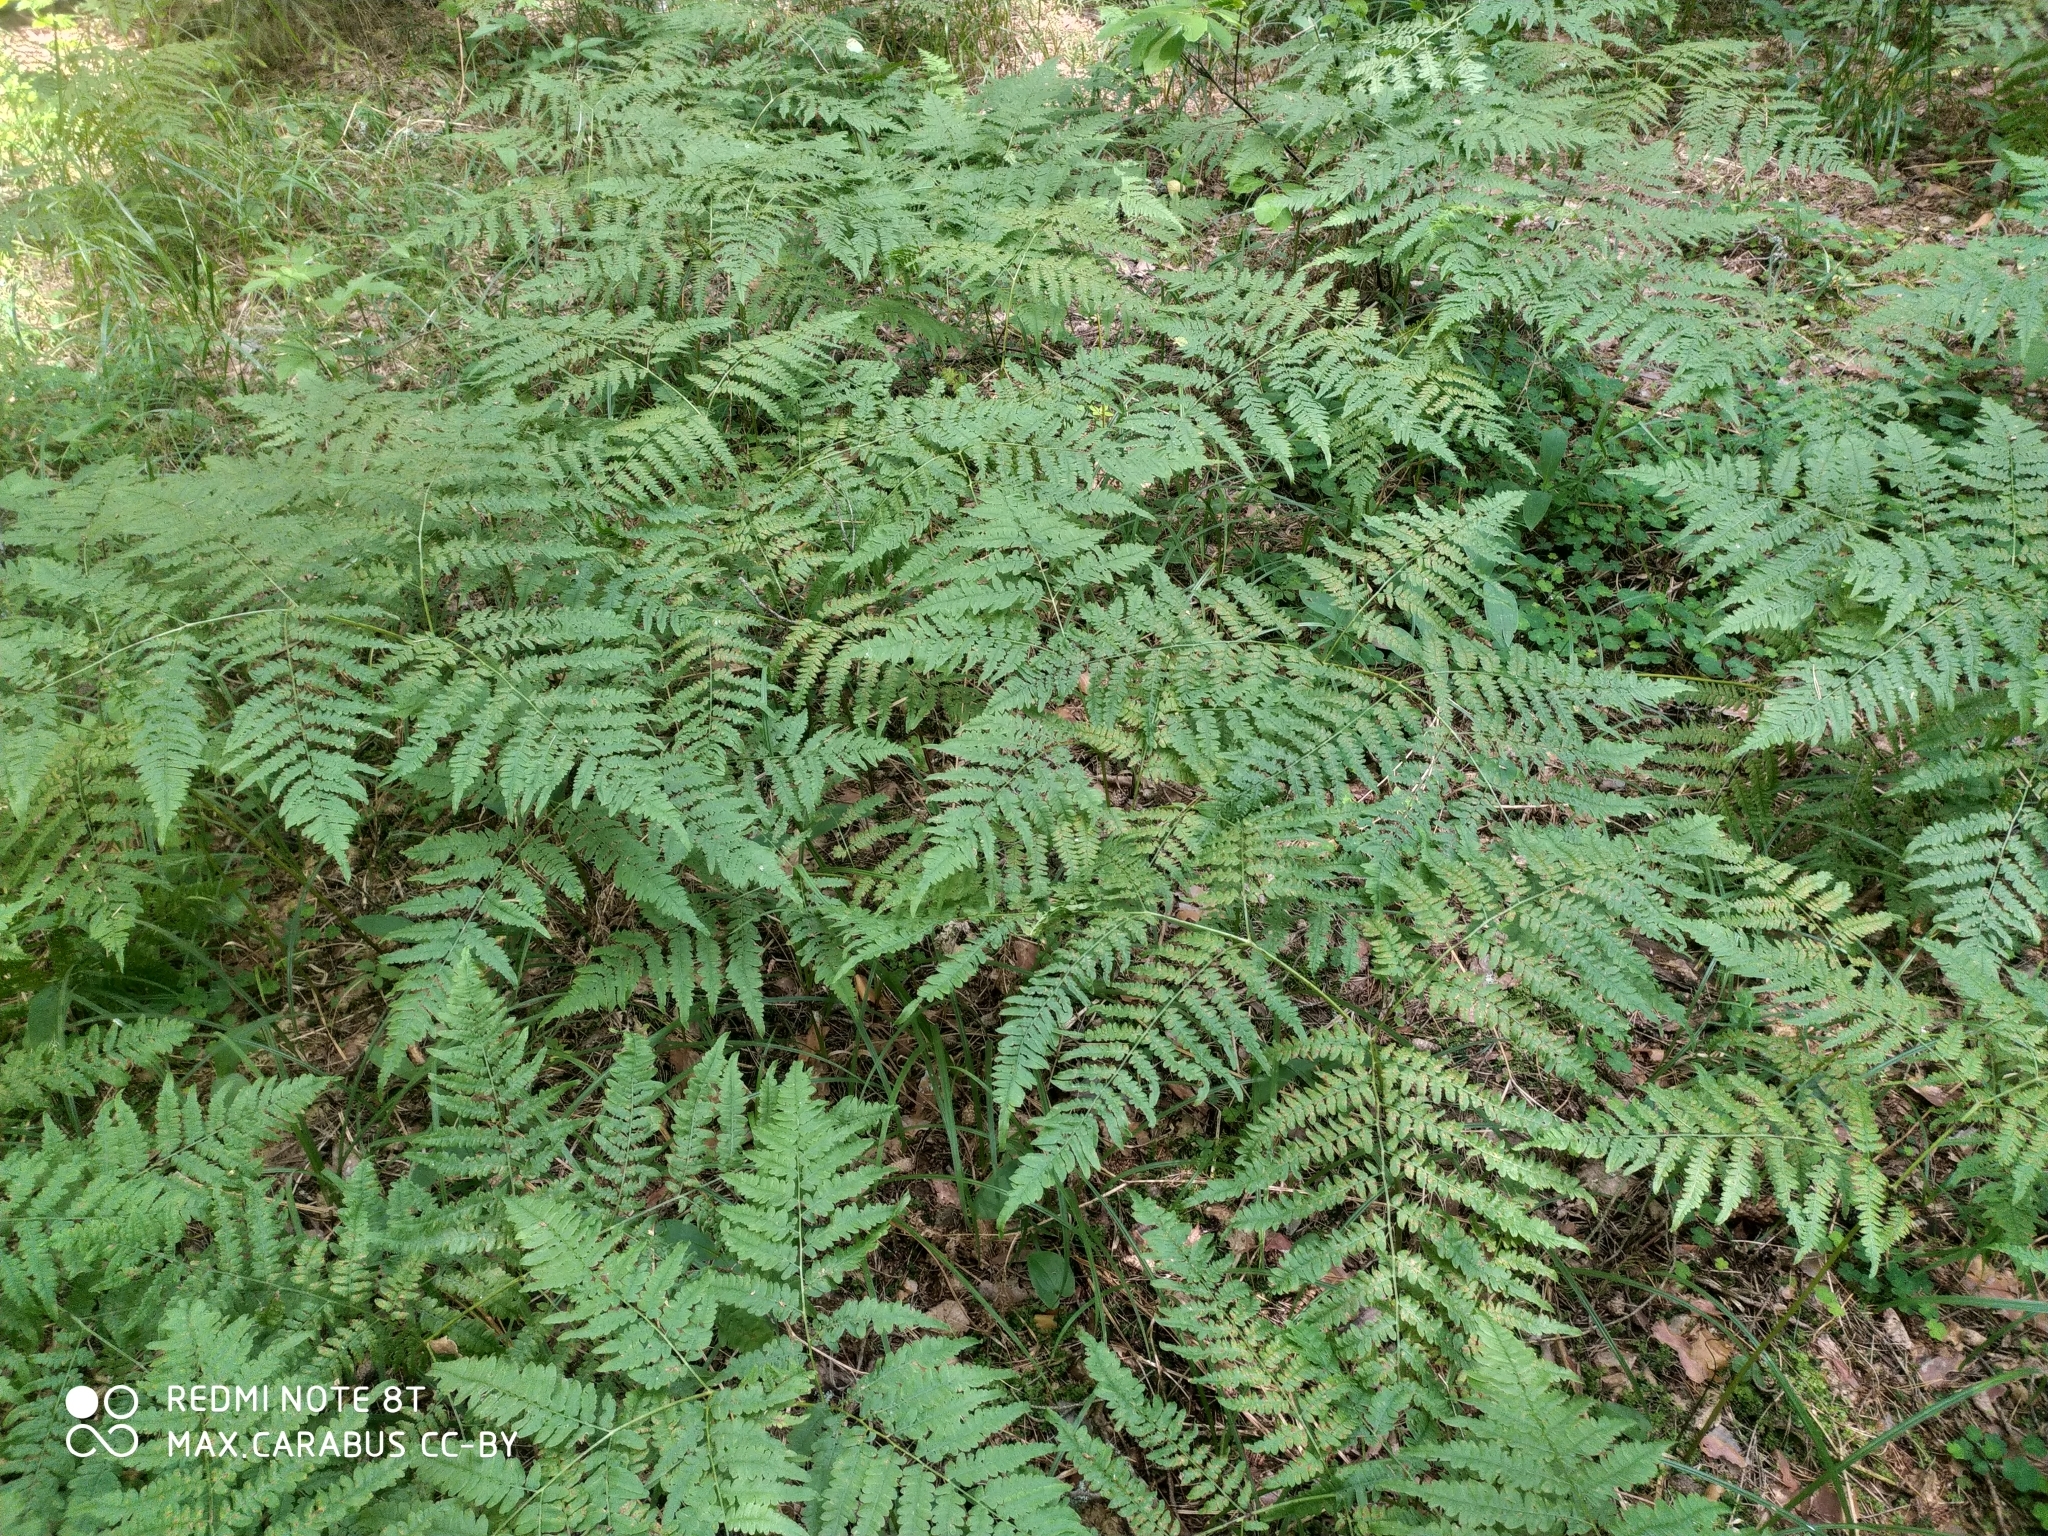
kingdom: Plantae
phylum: Tracheophyta
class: Polypodiopsida
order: Polypodiales
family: Dennstaedtiaceae
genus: Pteridium
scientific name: Pteridium aquilinum
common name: Bracken
